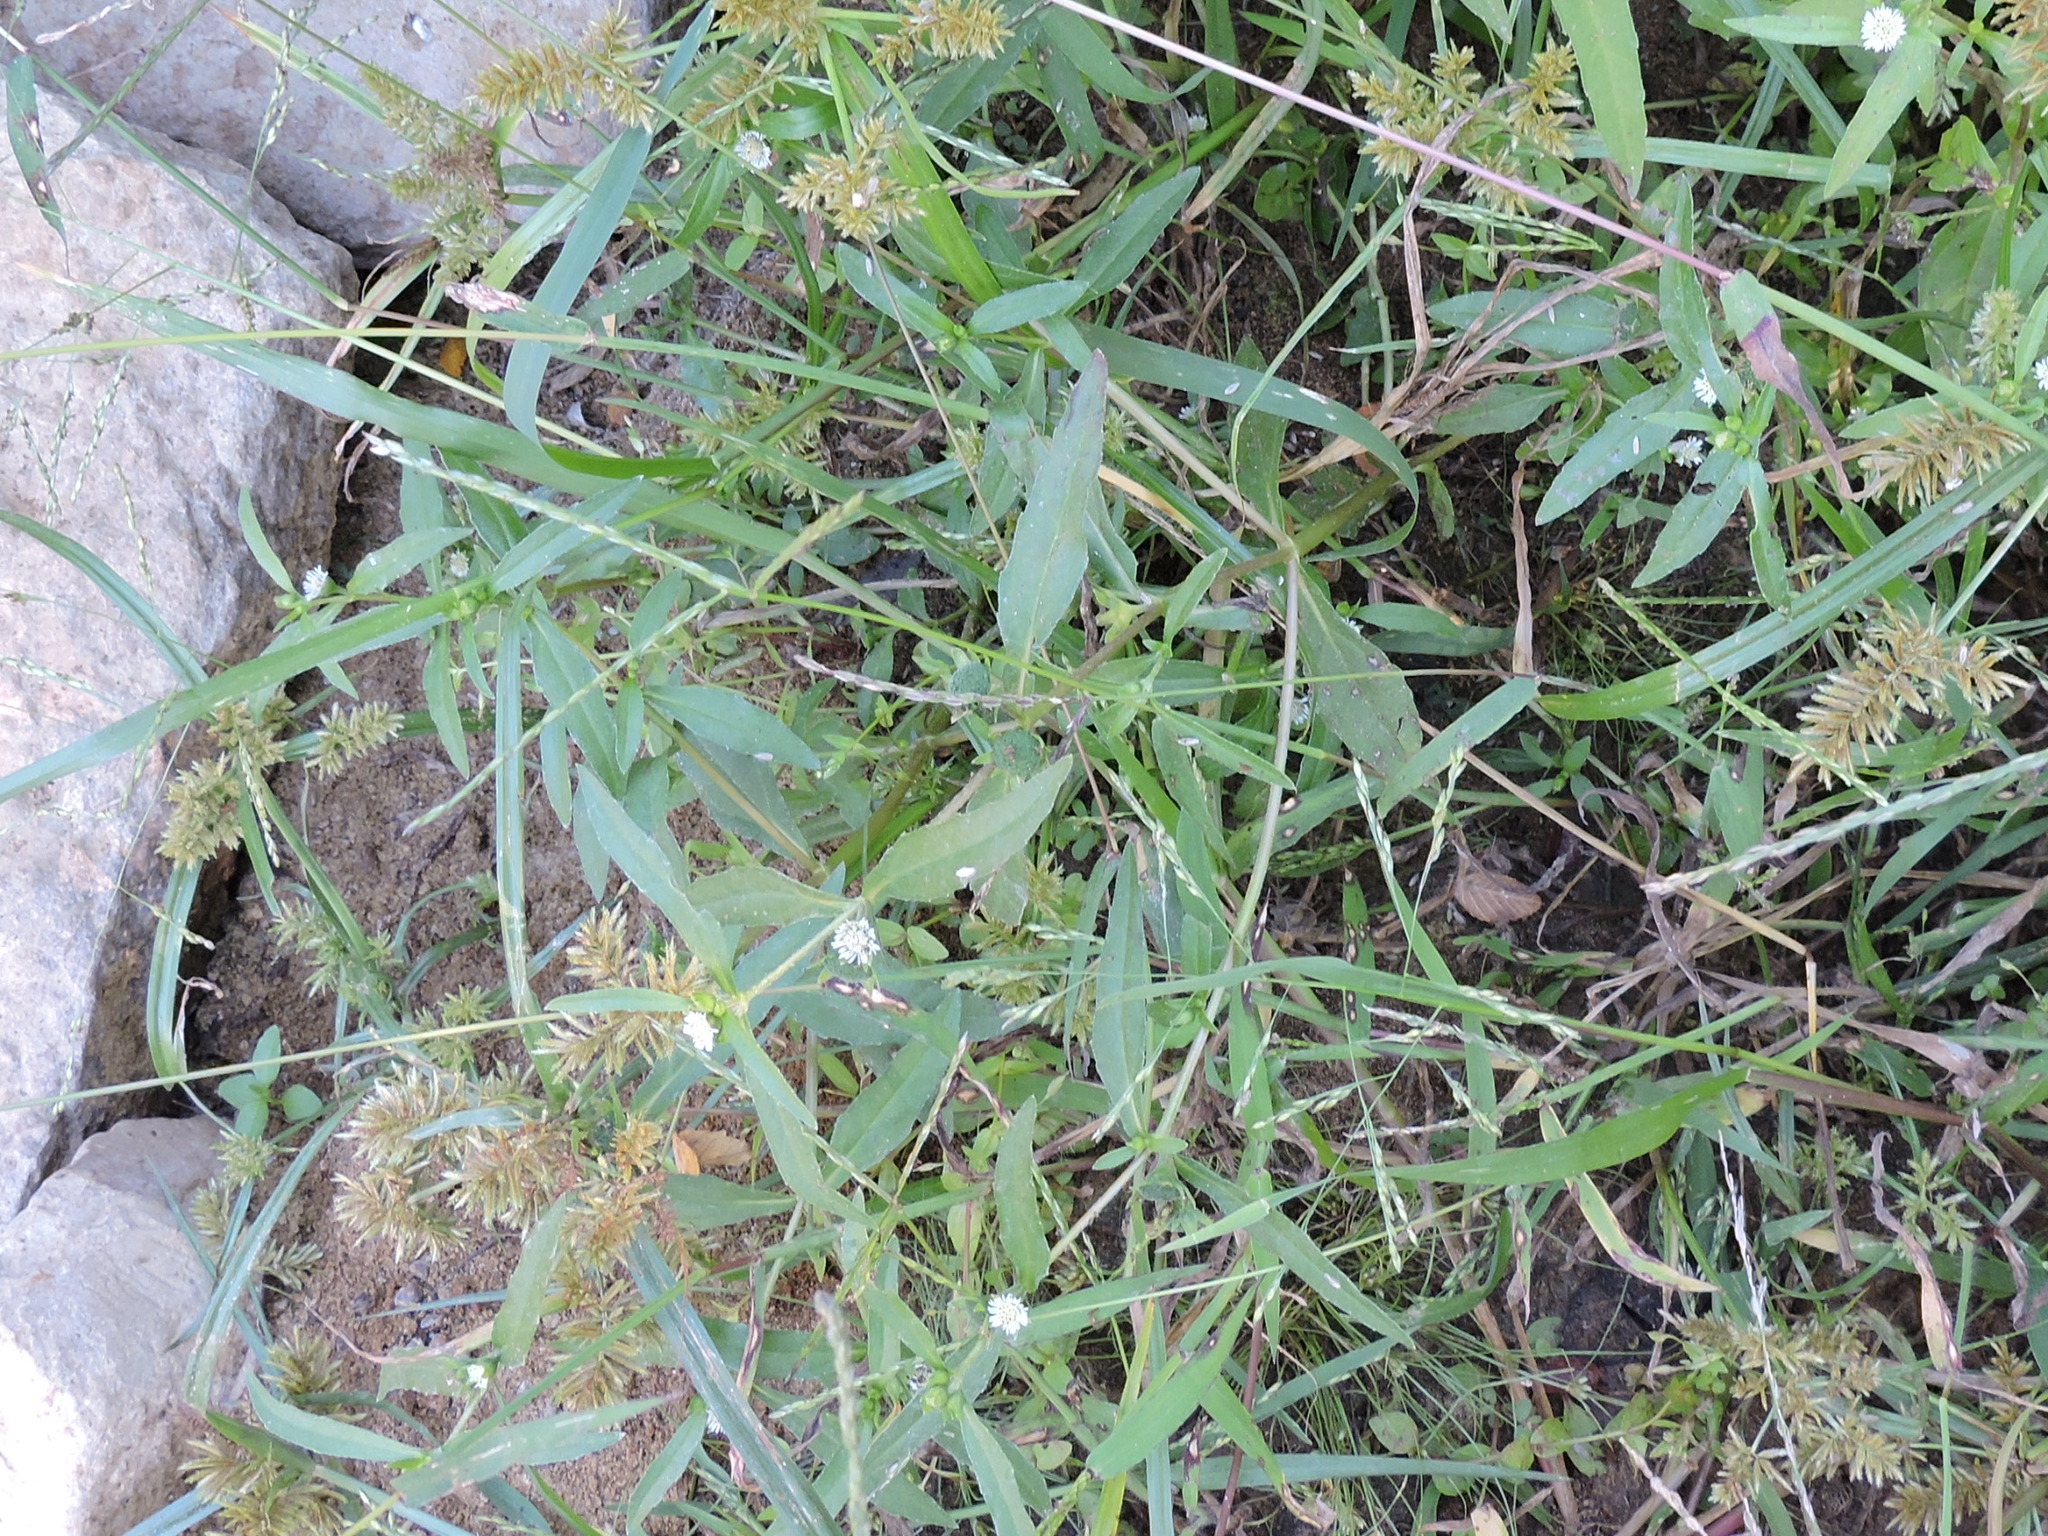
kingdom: Plantae
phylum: Tracheophyta
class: Magnoliopsida
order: Asterales
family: Asteraceae
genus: Eclipta
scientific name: Eclipta prostrata
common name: False daisy
